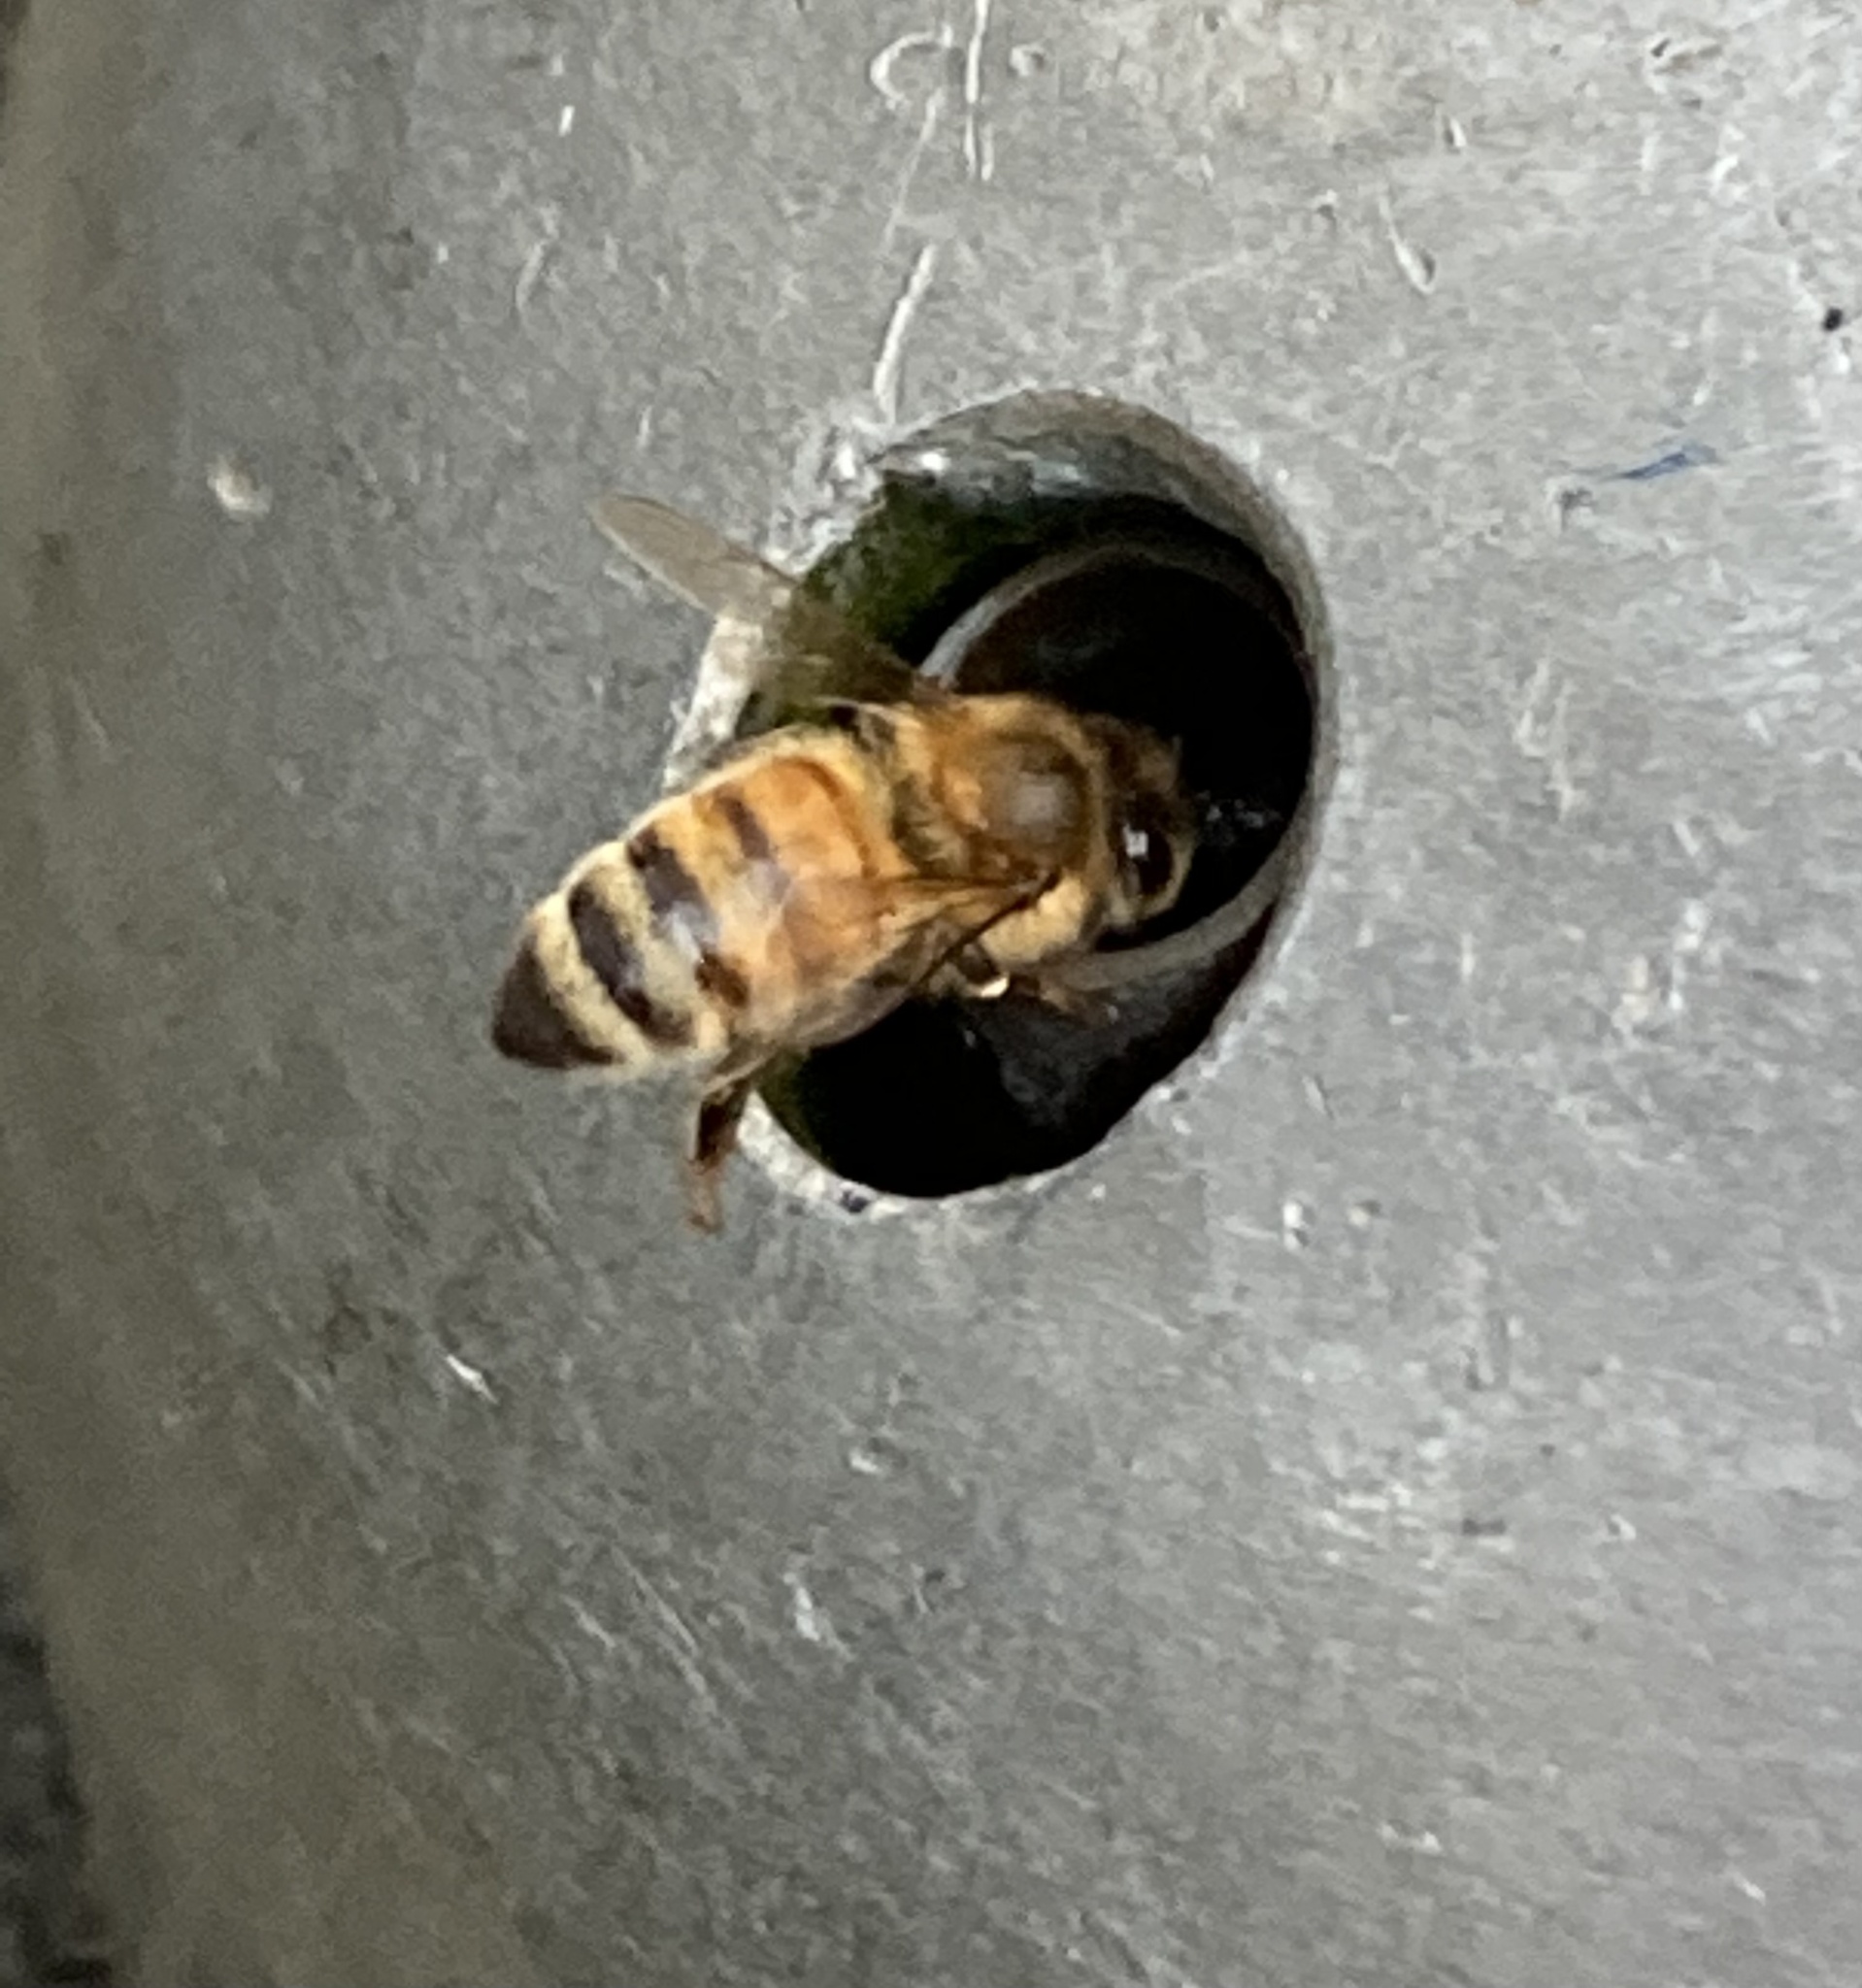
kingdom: Animalia
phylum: Arthropoda
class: Insecta
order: Hymenoptera
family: Apidae
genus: Apis
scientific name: Apis mellifera
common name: Honey bee
